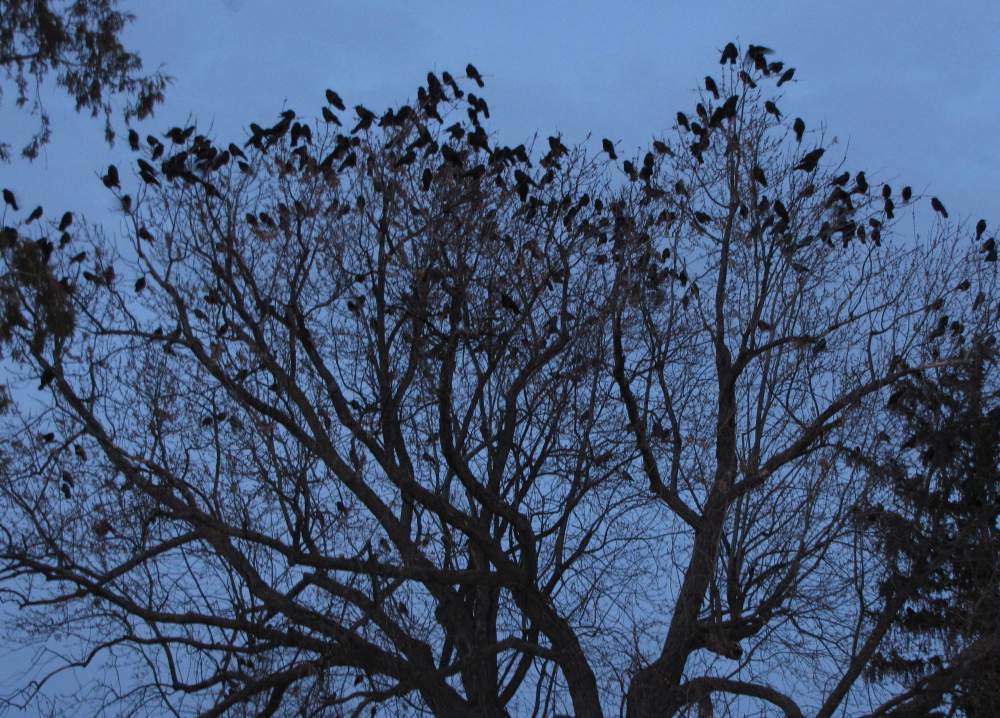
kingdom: Animalia
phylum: Chordata
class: Aves
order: Passeriformes
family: Corvidae
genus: Corvus
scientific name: Corvus brachyrhynchos
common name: American crow
